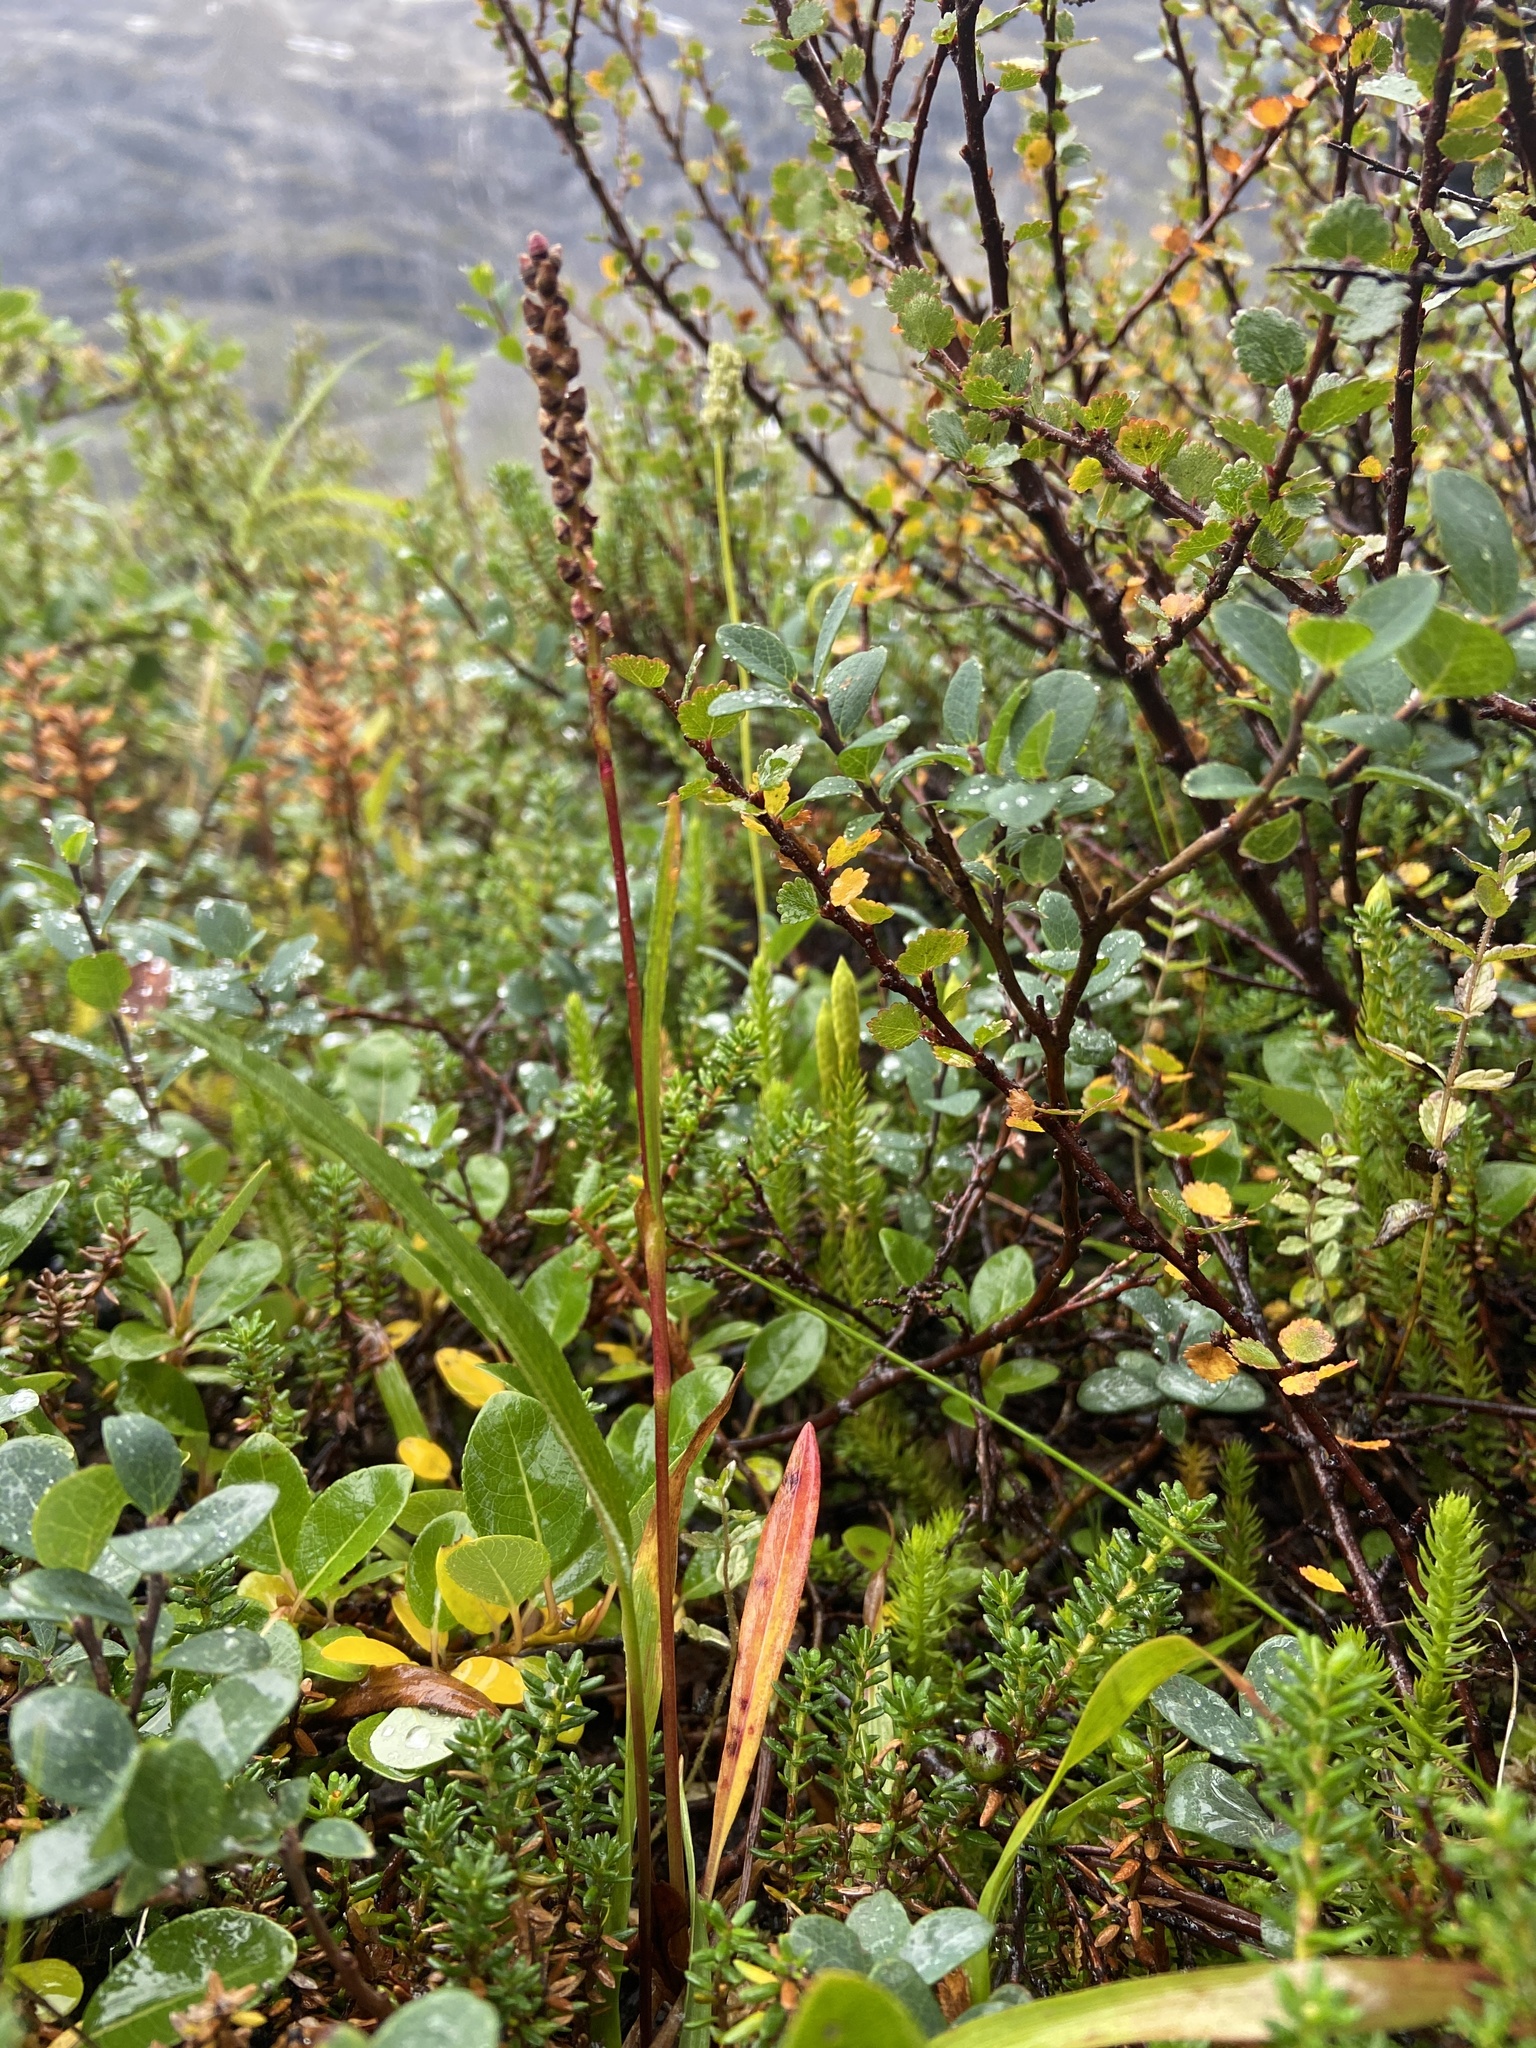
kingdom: Plantae
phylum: Tracheophyta
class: Magnoliopsida
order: Caryophyllales
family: Polygonaceae
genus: Bistorta
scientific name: Bistorta vivipara
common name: Alpine bistort
